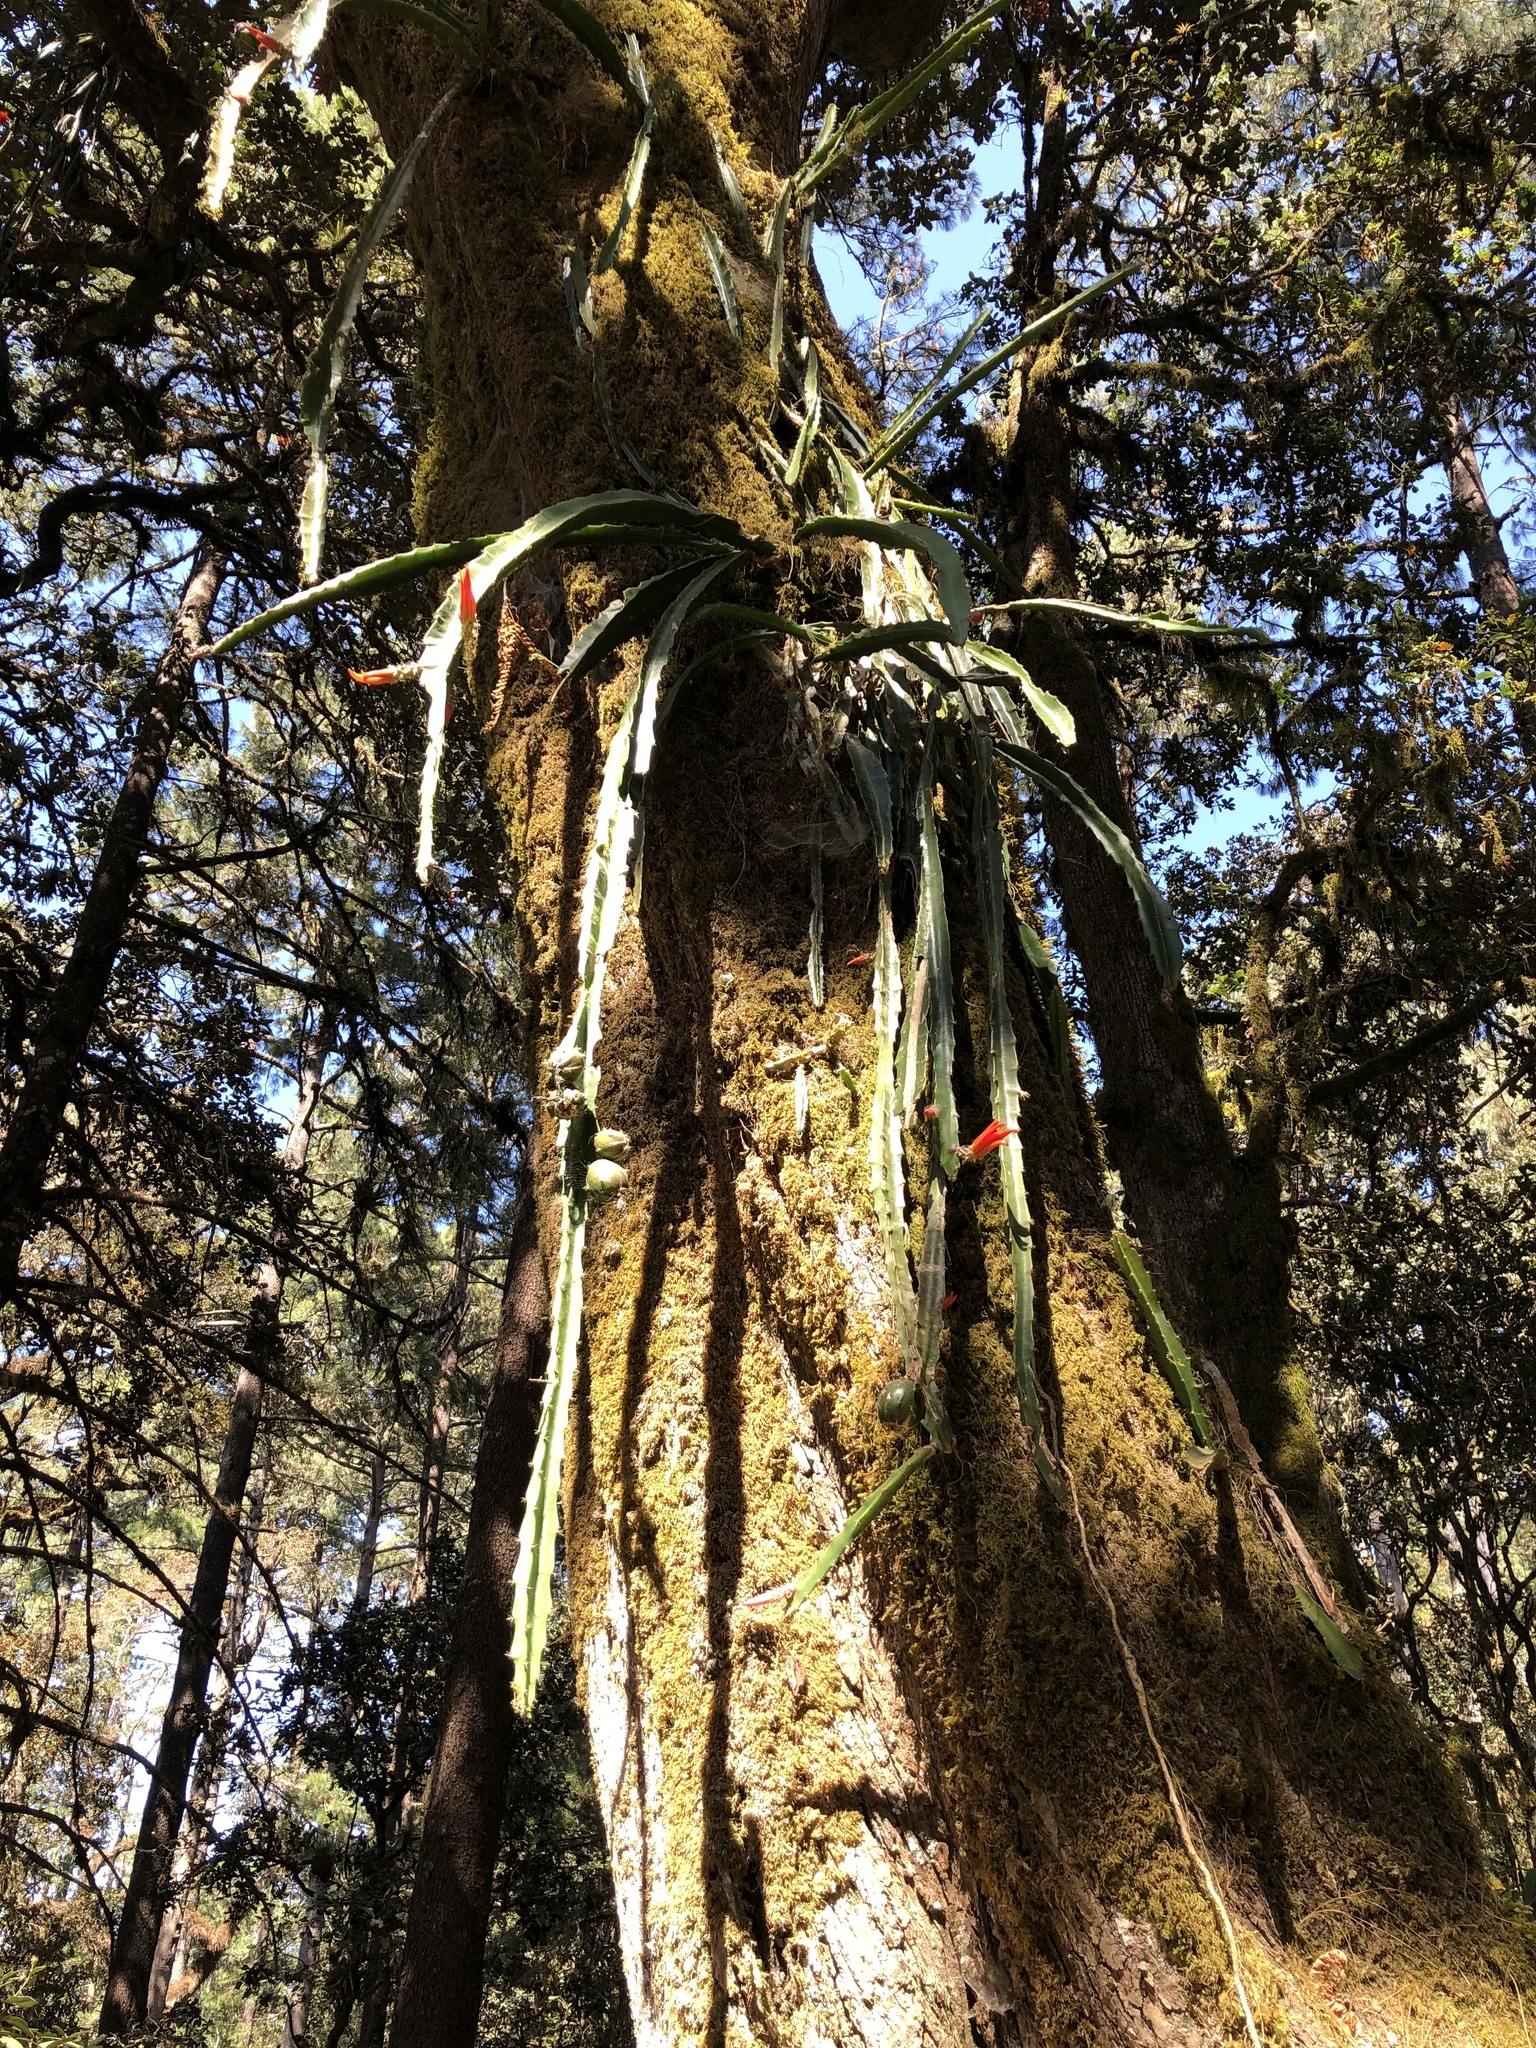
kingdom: Plantae
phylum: Tracheophyta
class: Magnoliopsida
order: Caryophyllales
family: Cactaceae
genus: Disocactus
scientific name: Disocactus speciosus
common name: Sun cereus
